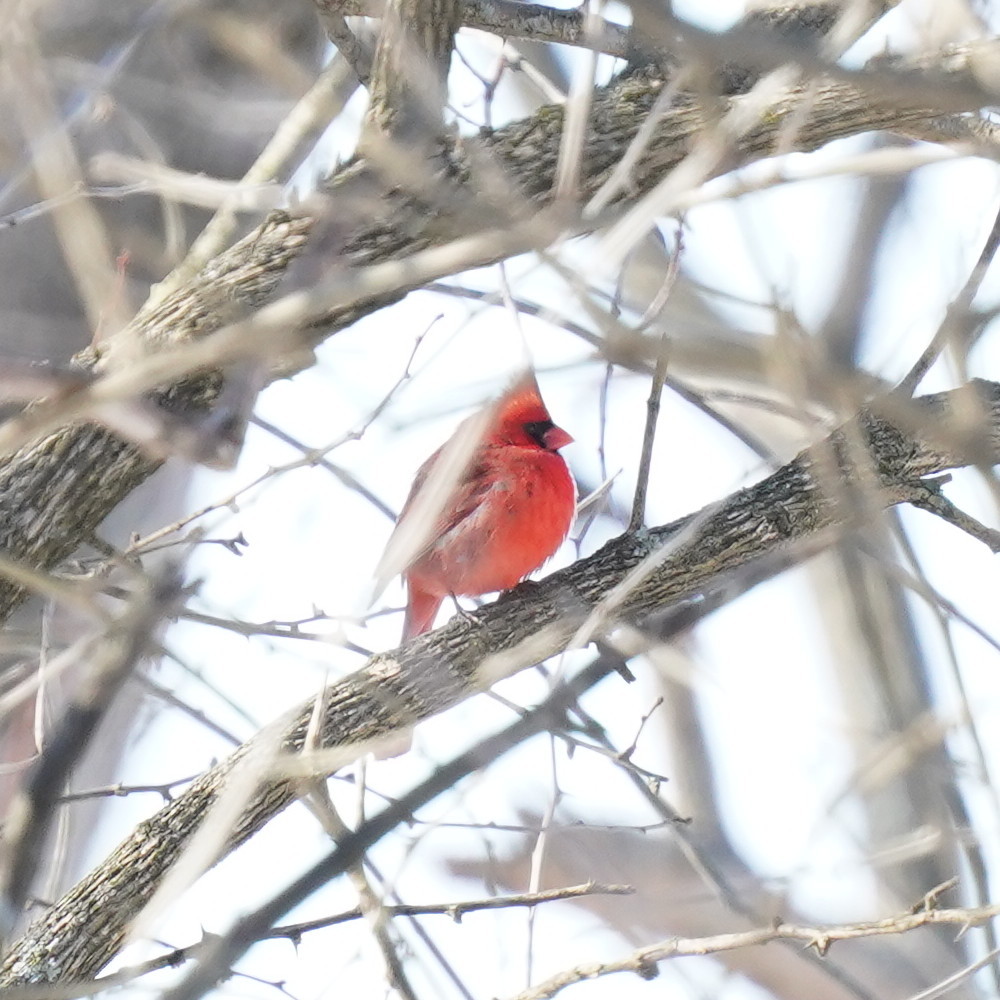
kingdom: Animalia
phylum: Chordata
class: Aves
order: Passeriformes
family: Cardinalidae
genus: Cardinalis
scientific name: Cardinalis cardinalis
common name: Northern cardinal
